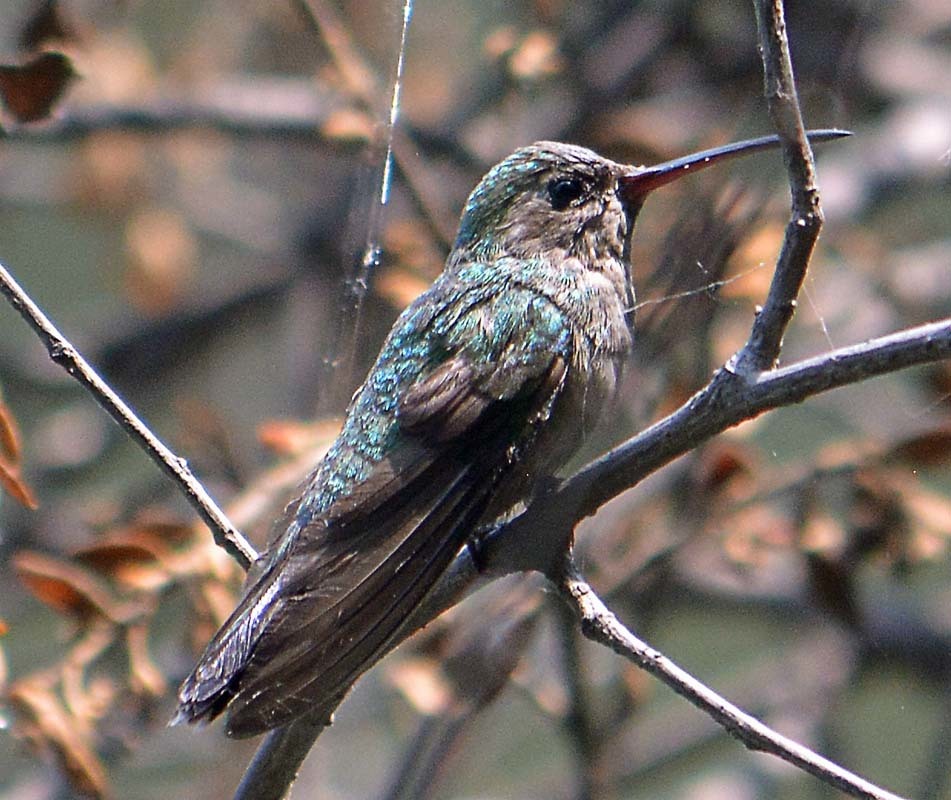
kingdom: Animalia
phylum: Chordata
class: Aves
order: Apodiformes
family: Trochilidae
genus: Cynanthus
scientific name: Cynanthus latirostris
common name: Broad-billed hummingbird
